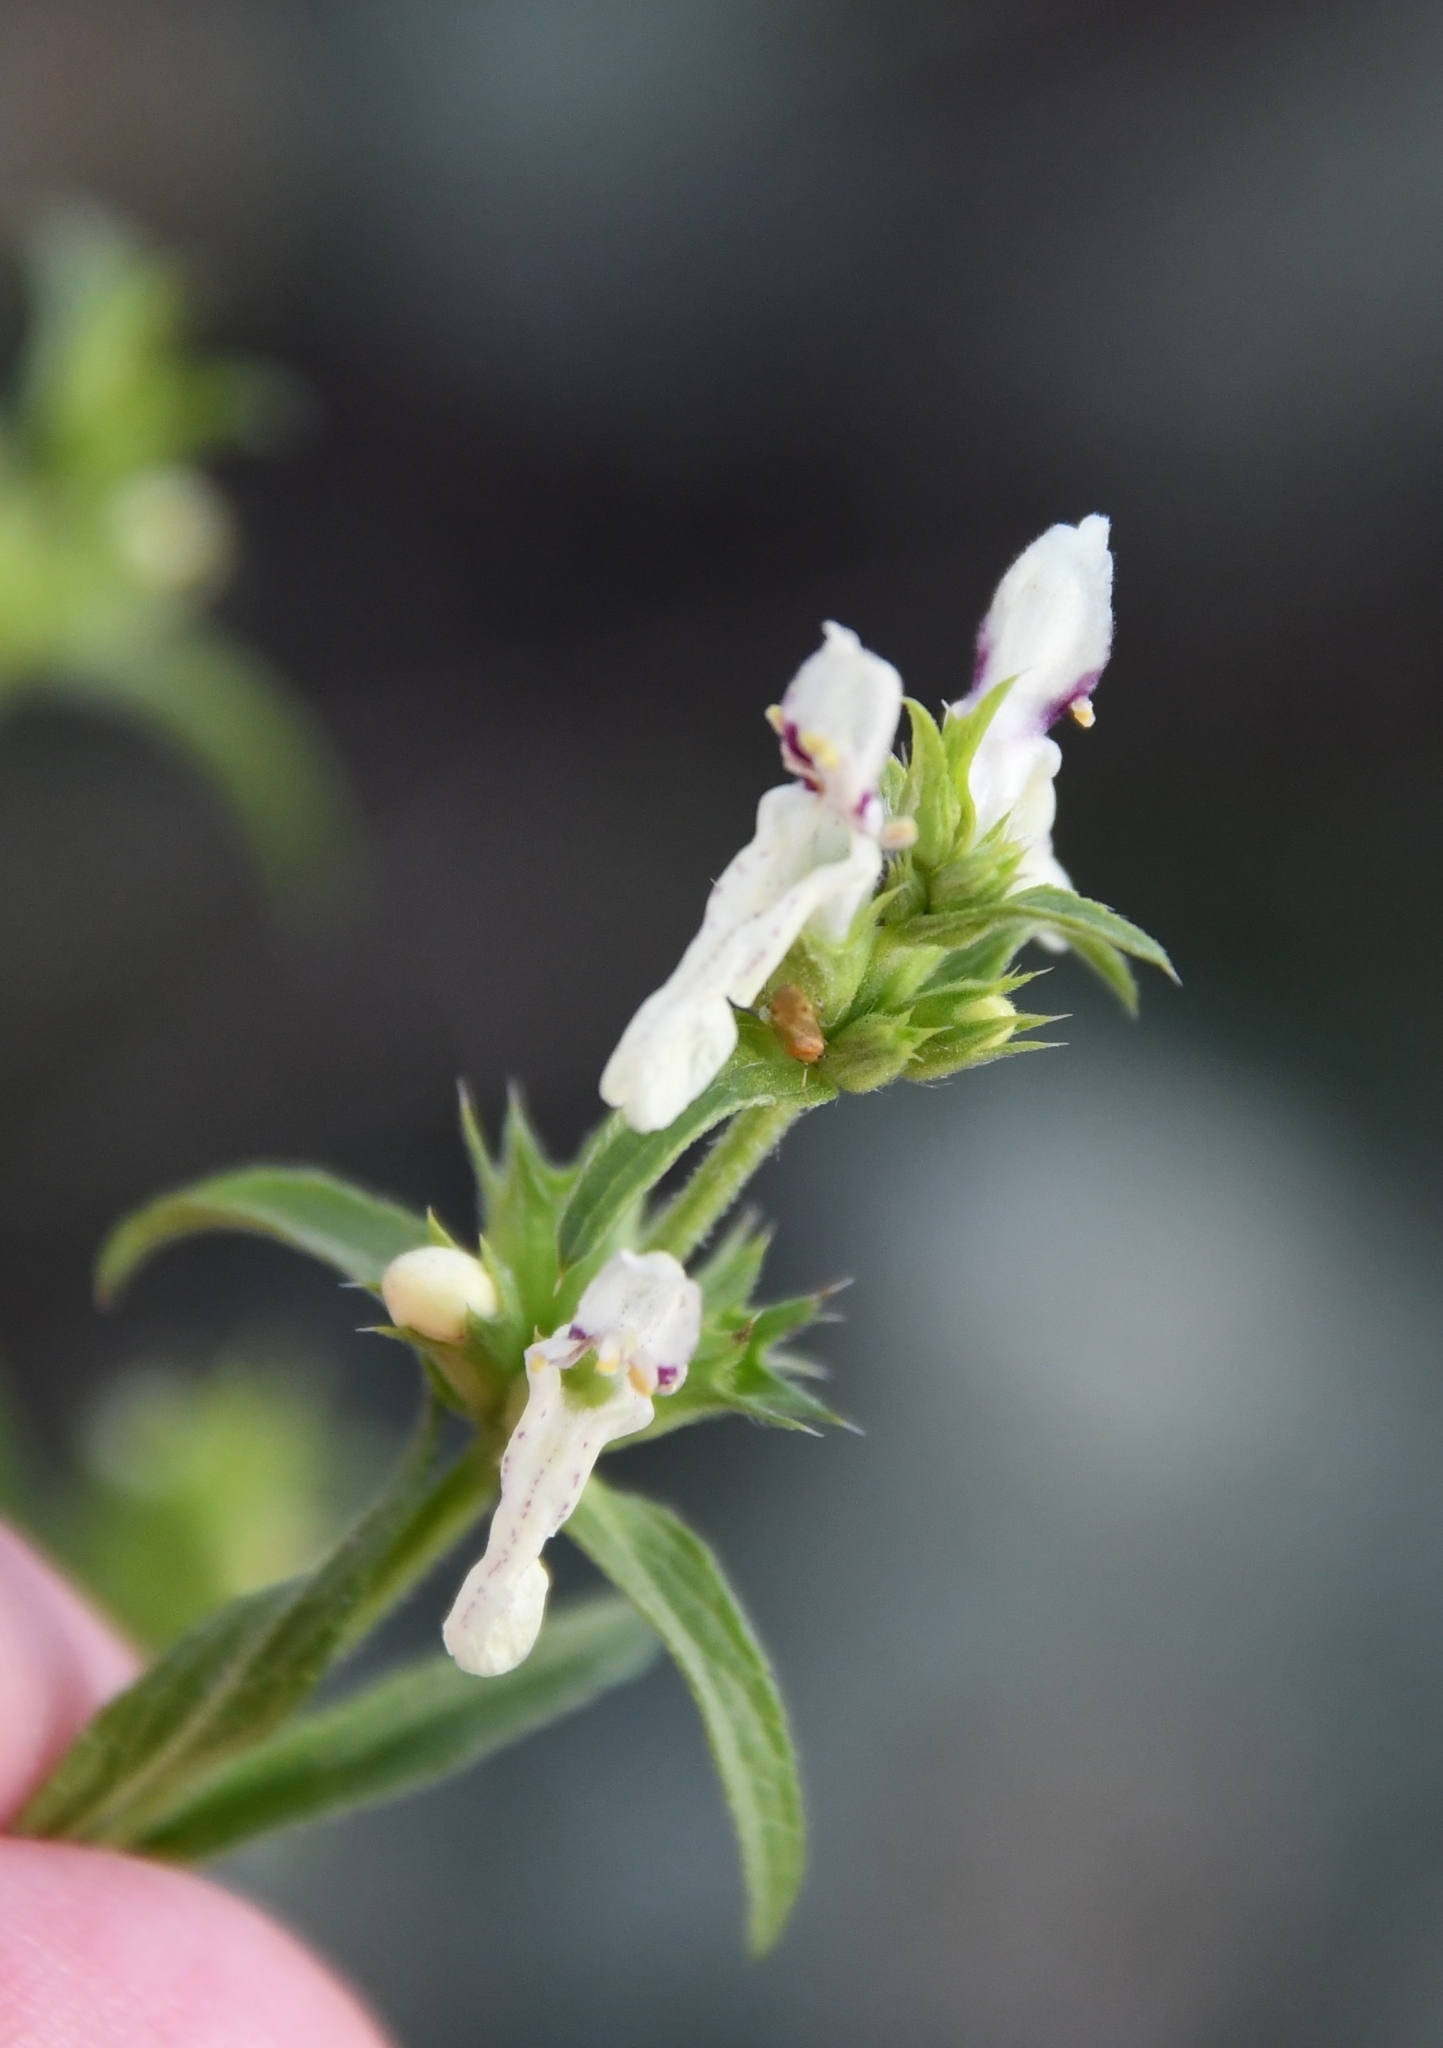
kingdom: Plantae
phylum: Tracheophyta
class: Magnoliopsida
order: Lamiales
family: Lamiaceae
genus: Stachys
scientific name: Stachys recta
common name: Perennial yellow-woundwort
